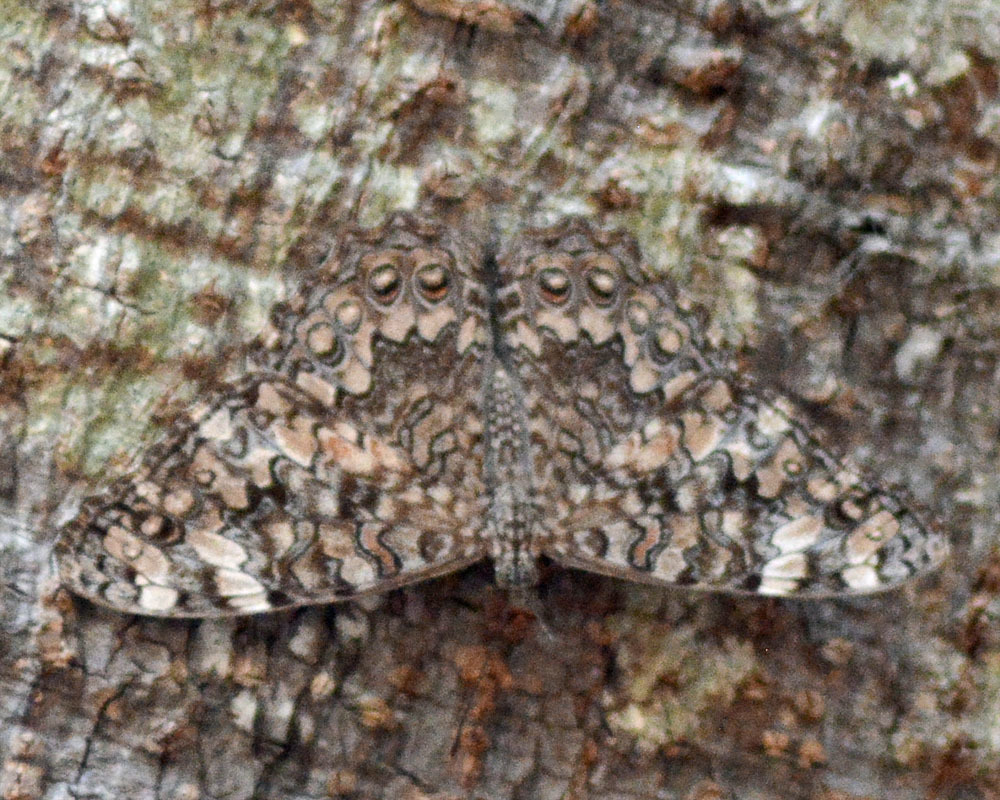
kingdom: Animalia
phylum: Arthropoda
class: Insecta
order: Lepidoptera
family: Nymphalidae
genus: Hamadryas
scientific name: Hamadryas februa
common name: Gray cracker
